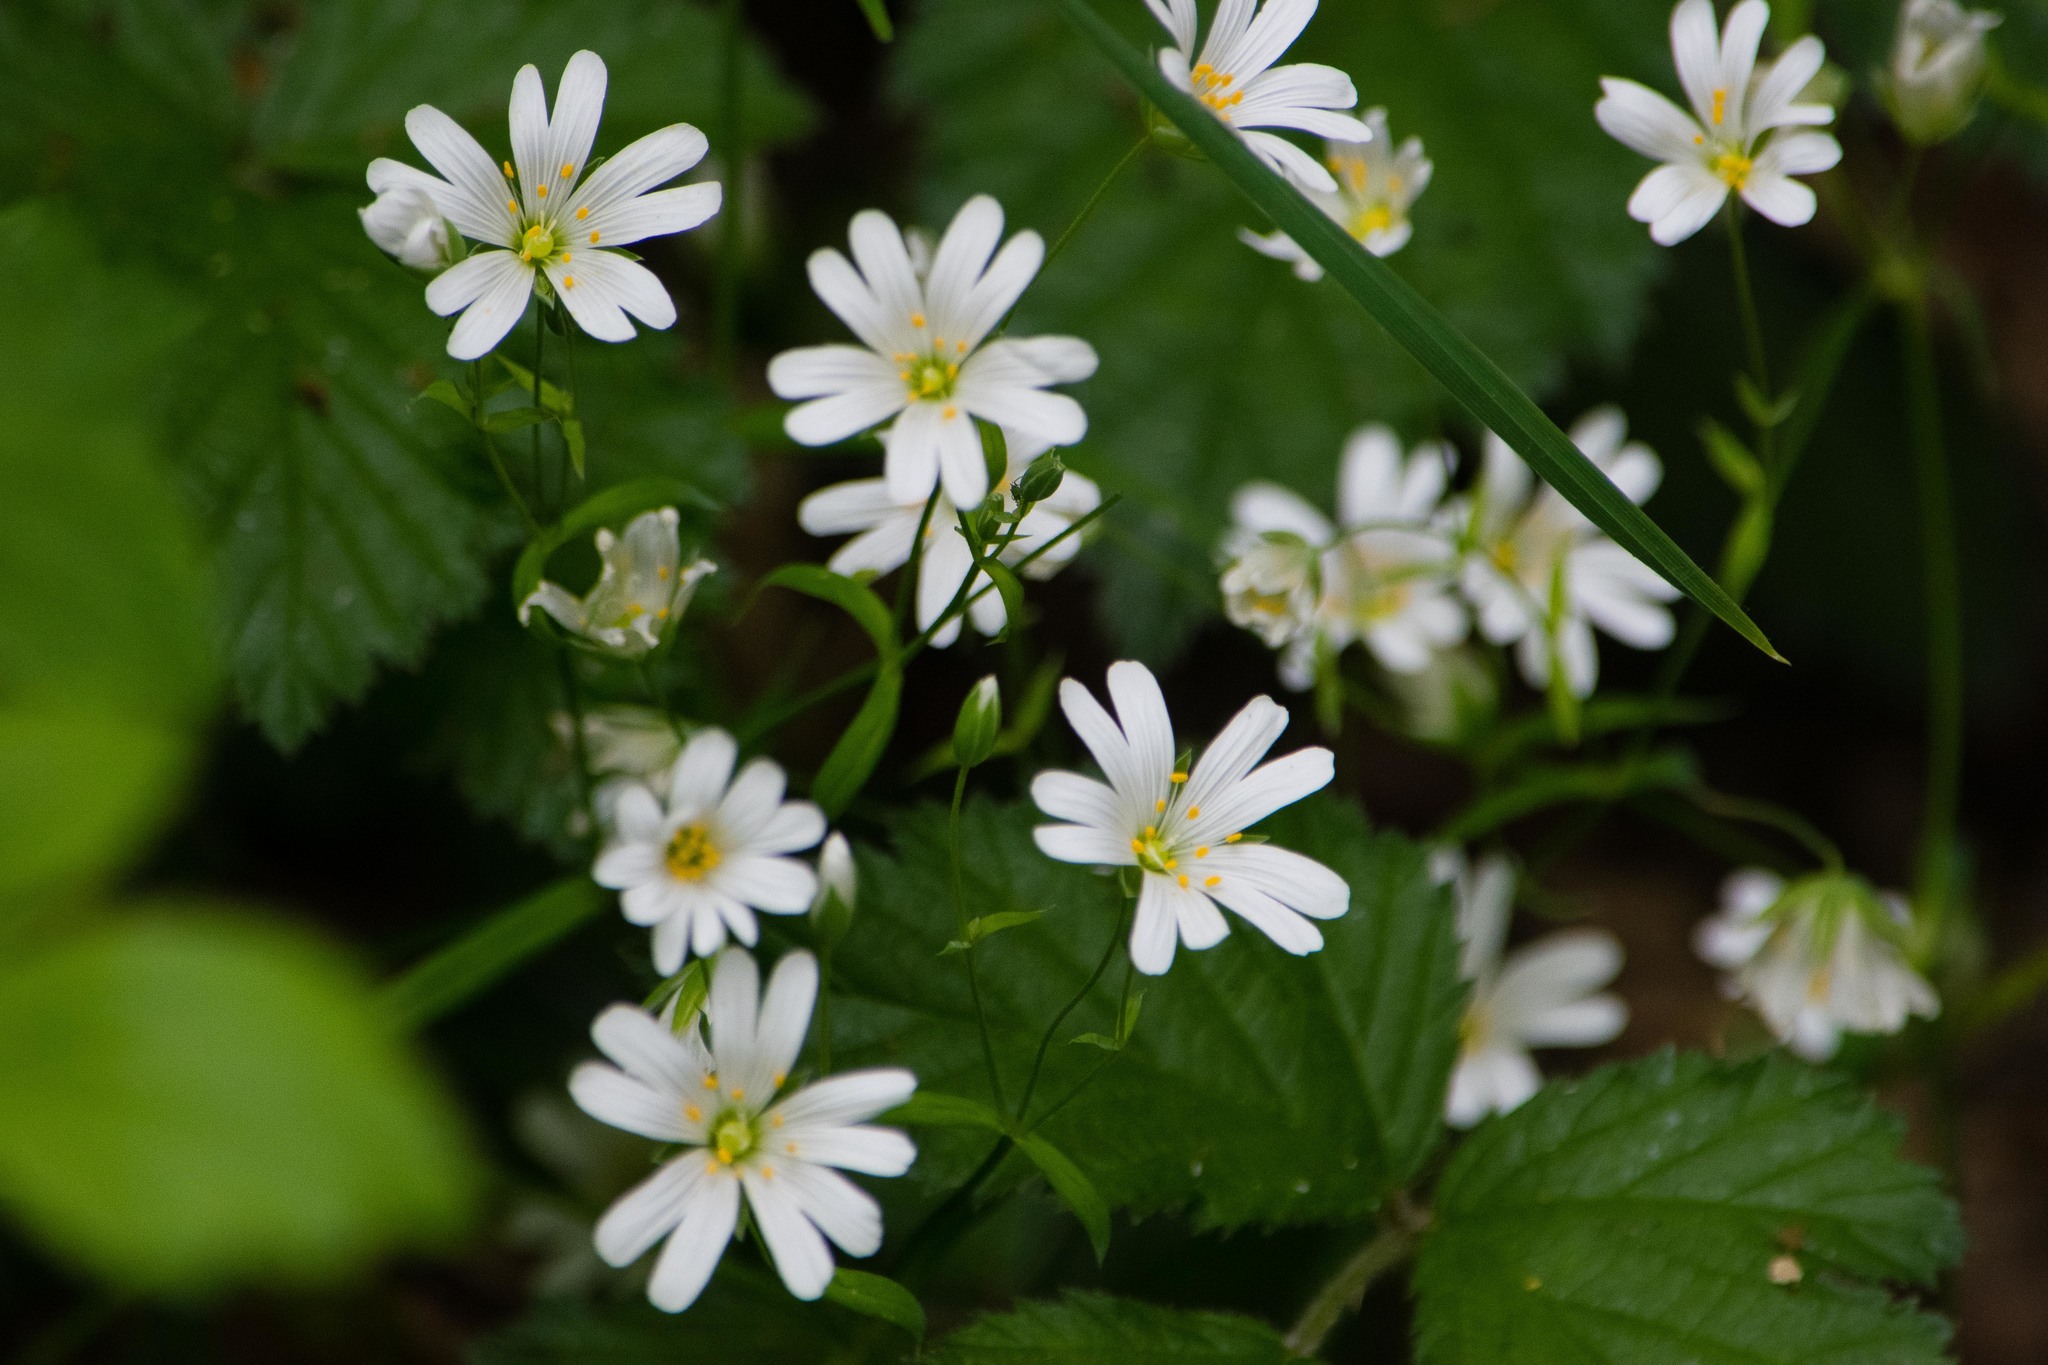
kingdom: Plantae
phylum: Tracheophyta
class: Magnoliopsida
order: Caryophyllales
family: Caryophyllaceae
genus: Rabelera
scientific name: Rabelera holostea
